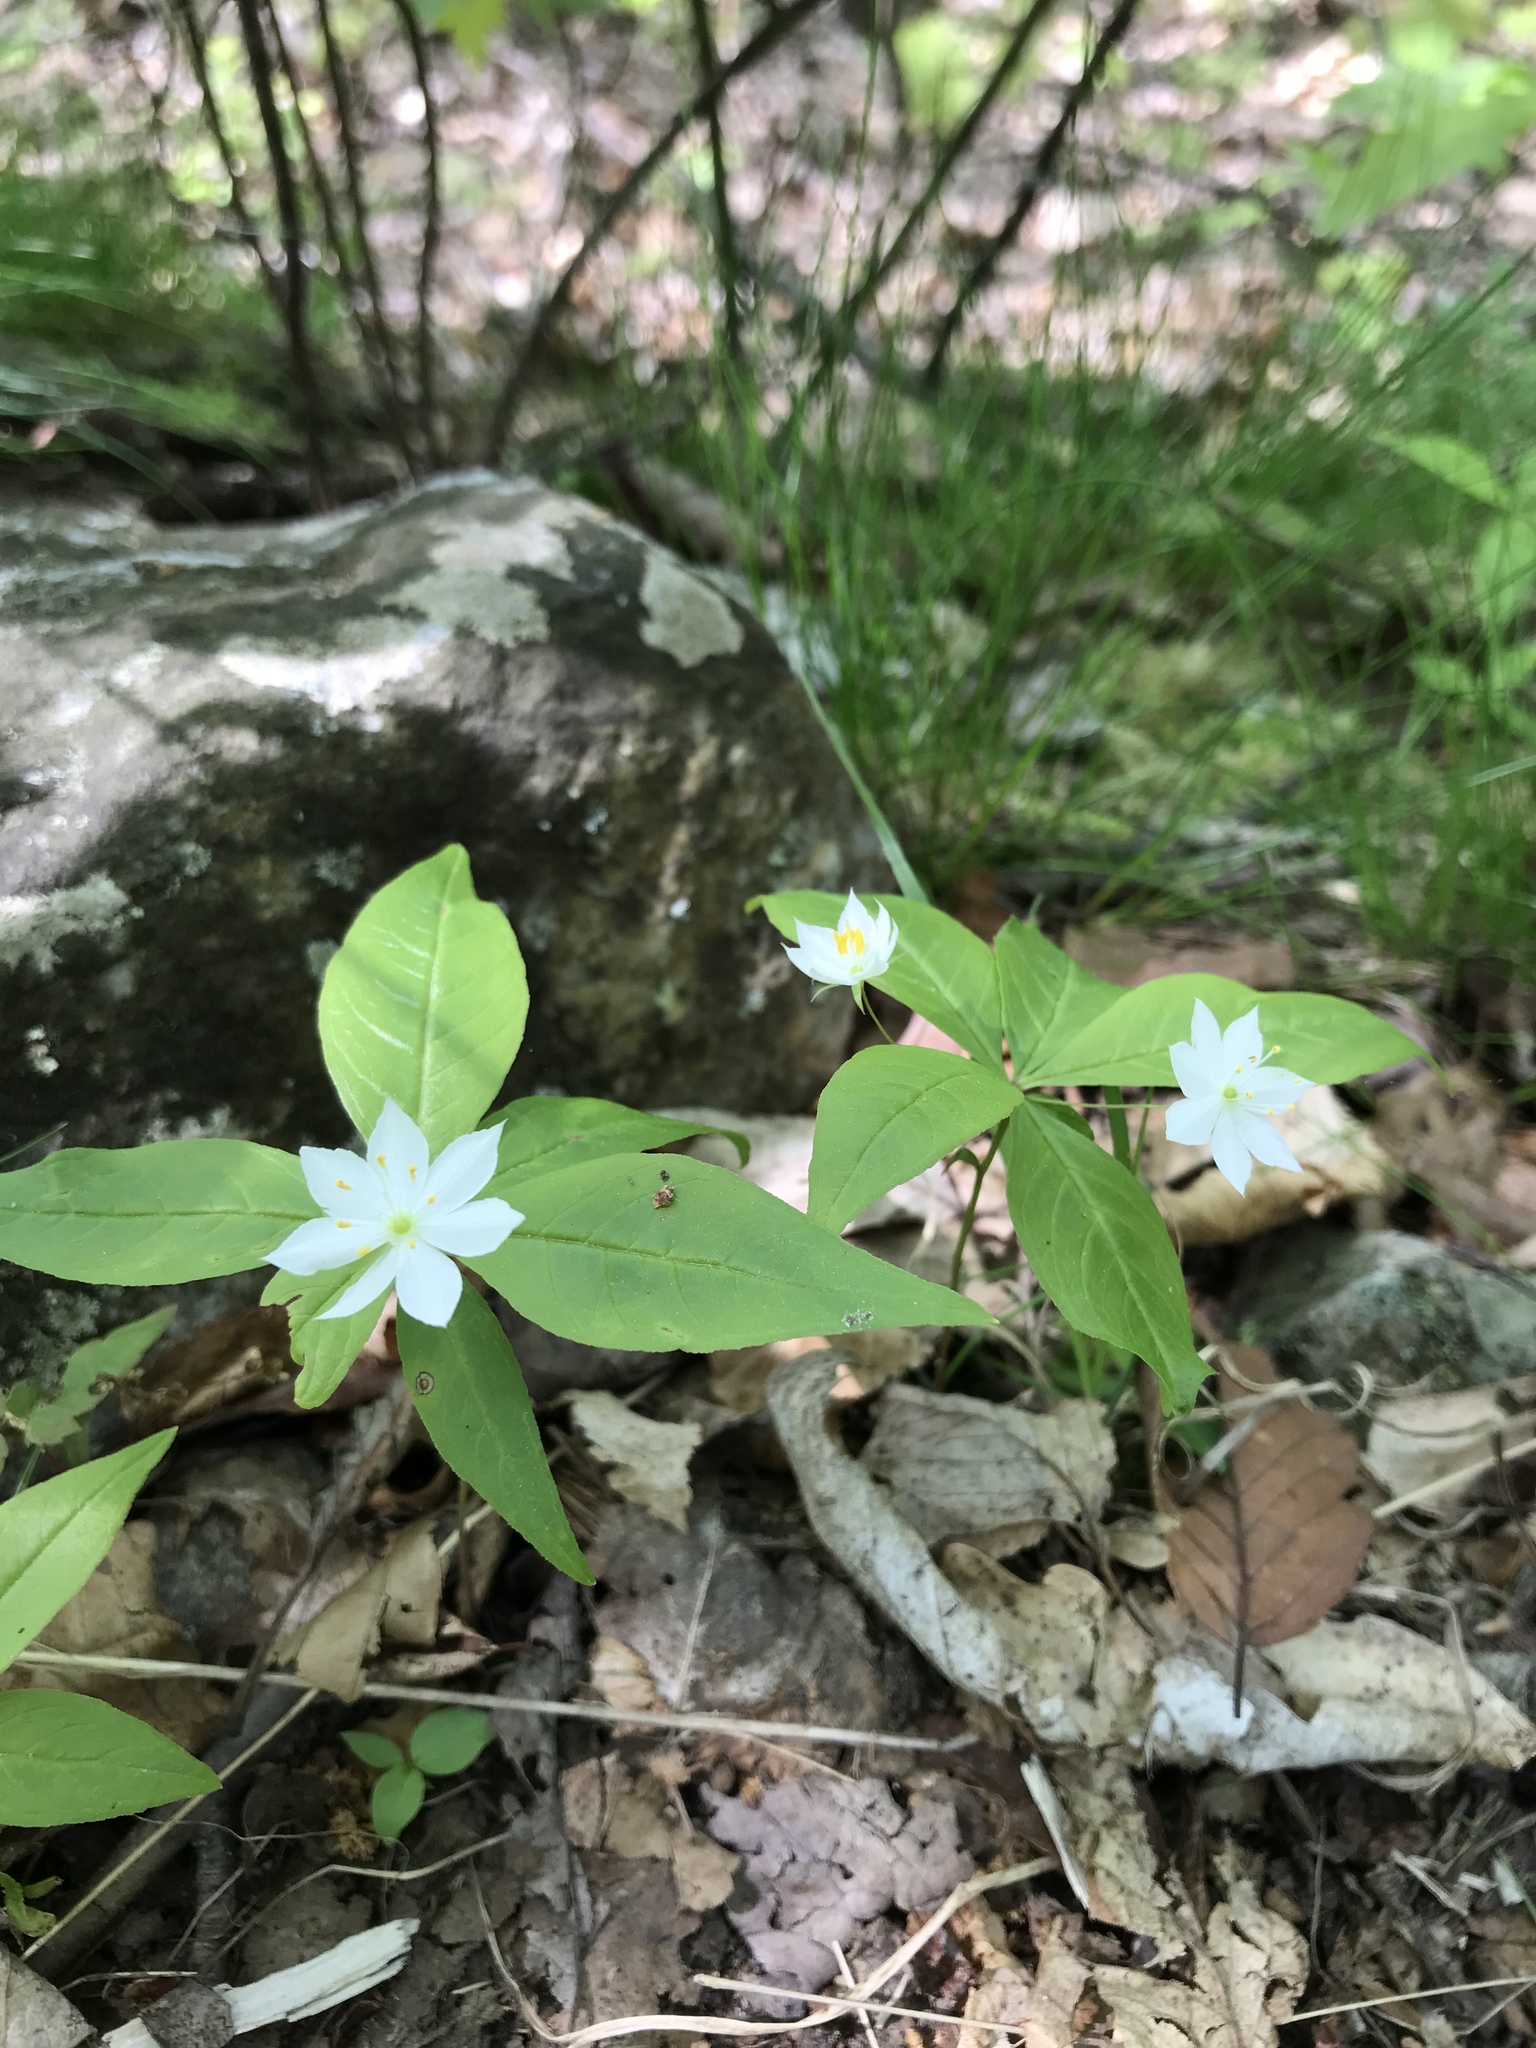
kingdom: Plantae
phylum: Tracheophyta
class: Magnoliopsida
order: Ericales
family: Primulaceae
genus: Lysimachia
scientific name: Lysimachia borealis
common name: American starflower
